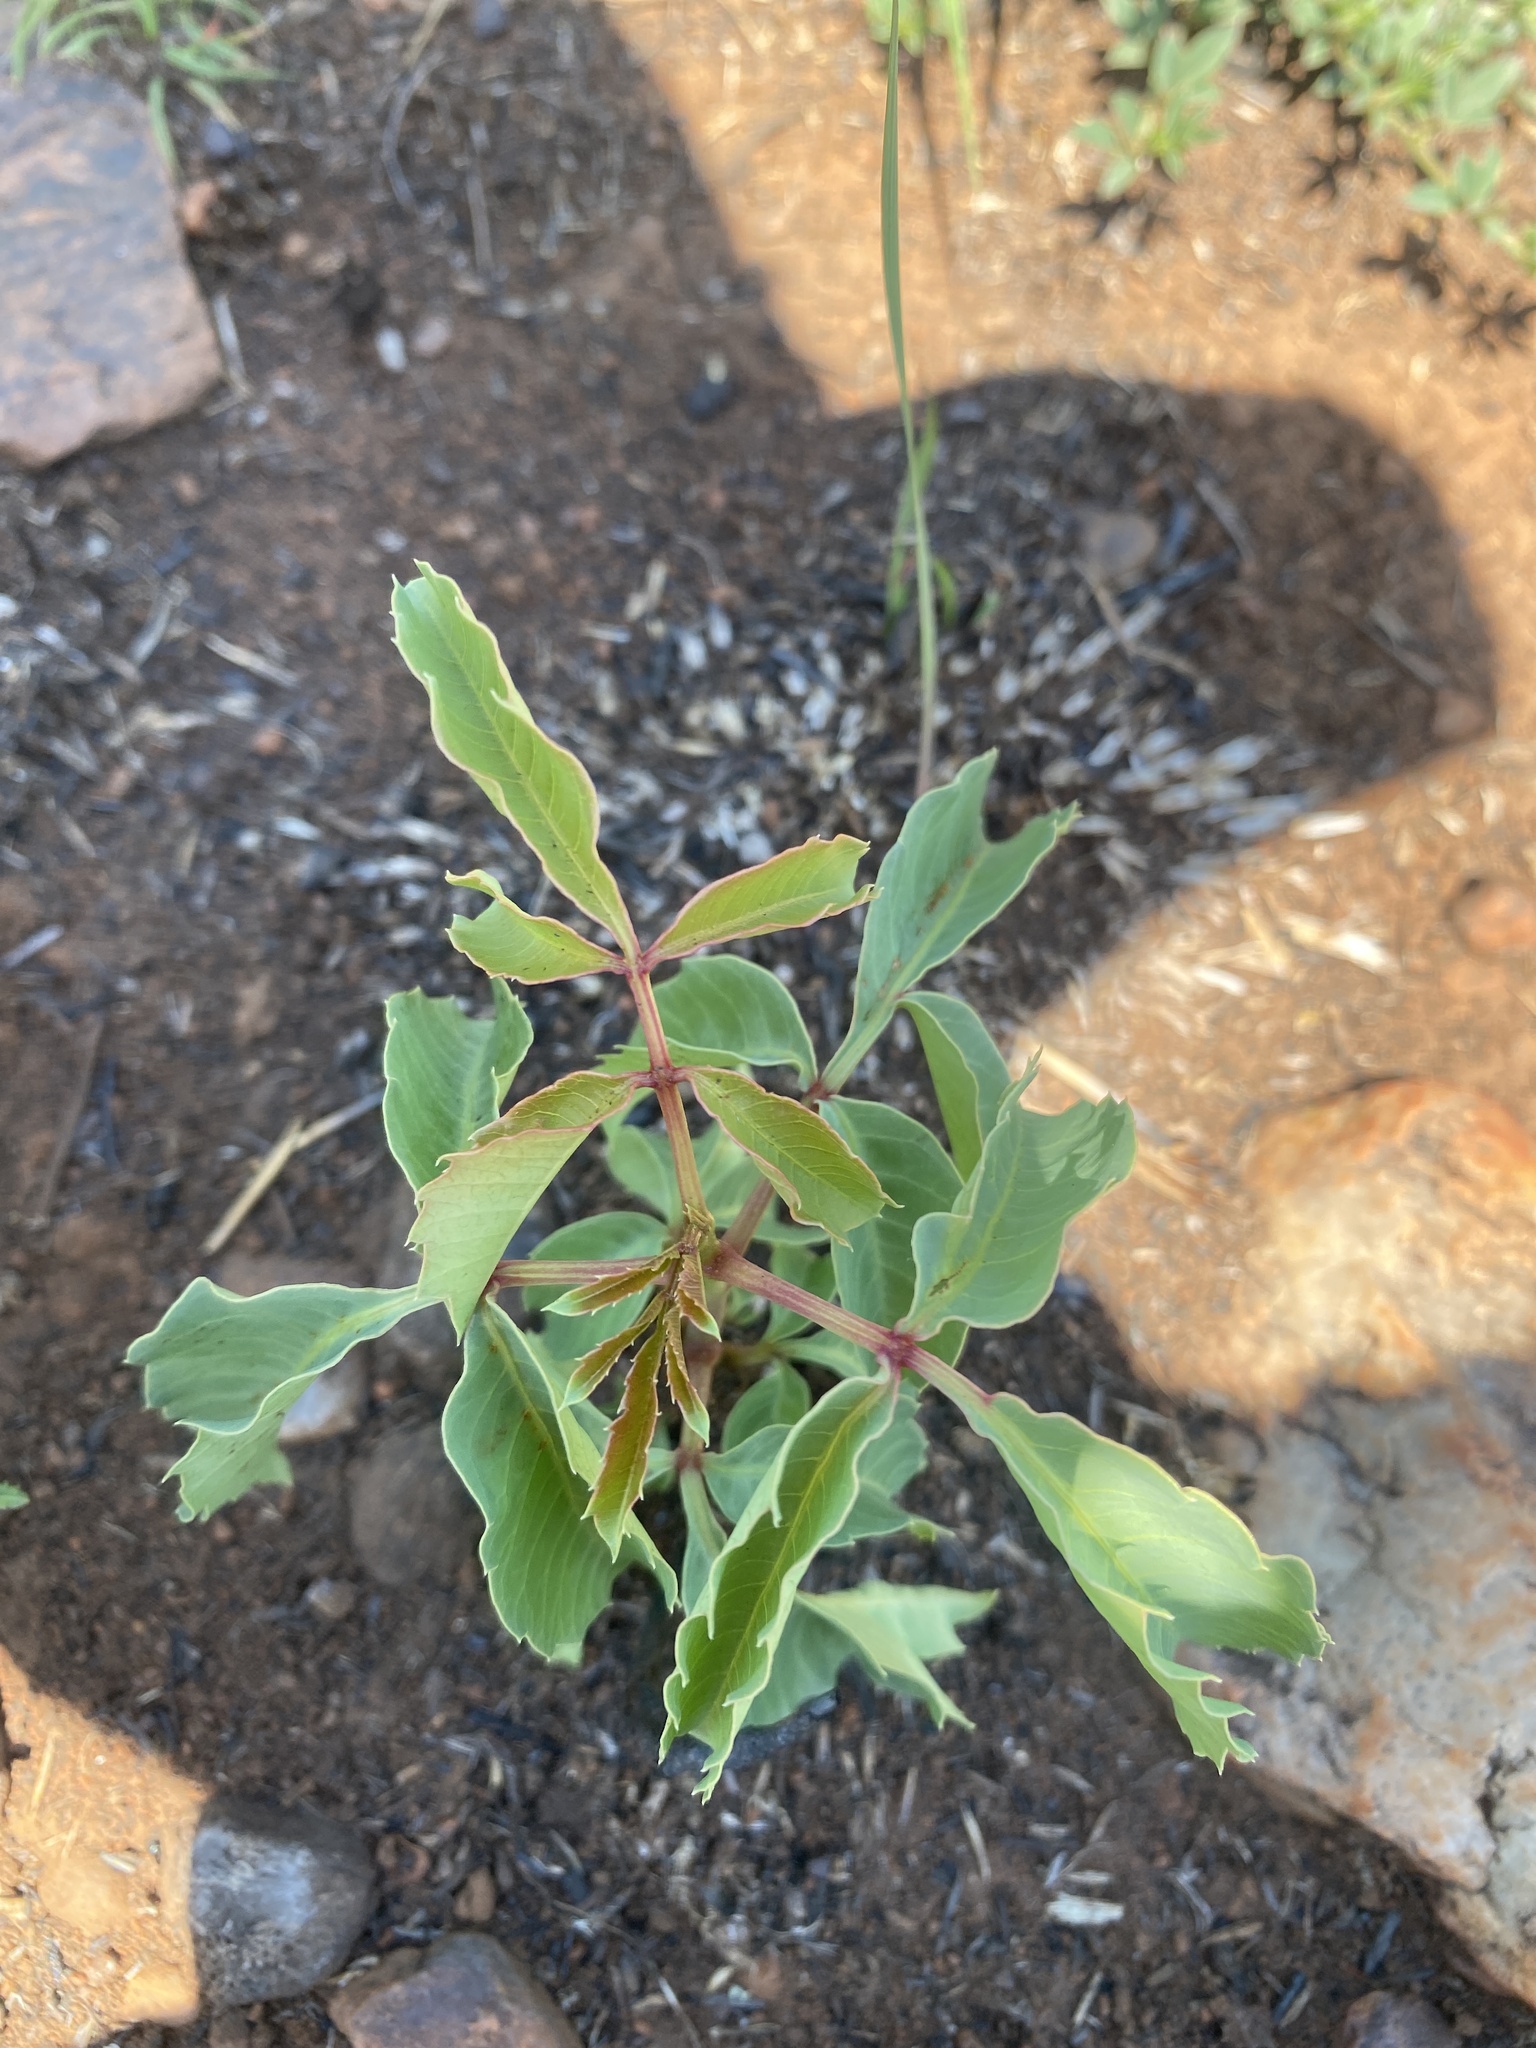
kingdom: Plantae
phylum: Tracheophyta
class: Magnoliopsida
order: Sapindales
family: Anacardiaceae
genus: Sclerocarya
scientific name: Sclerocarya birrea
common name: Marula
